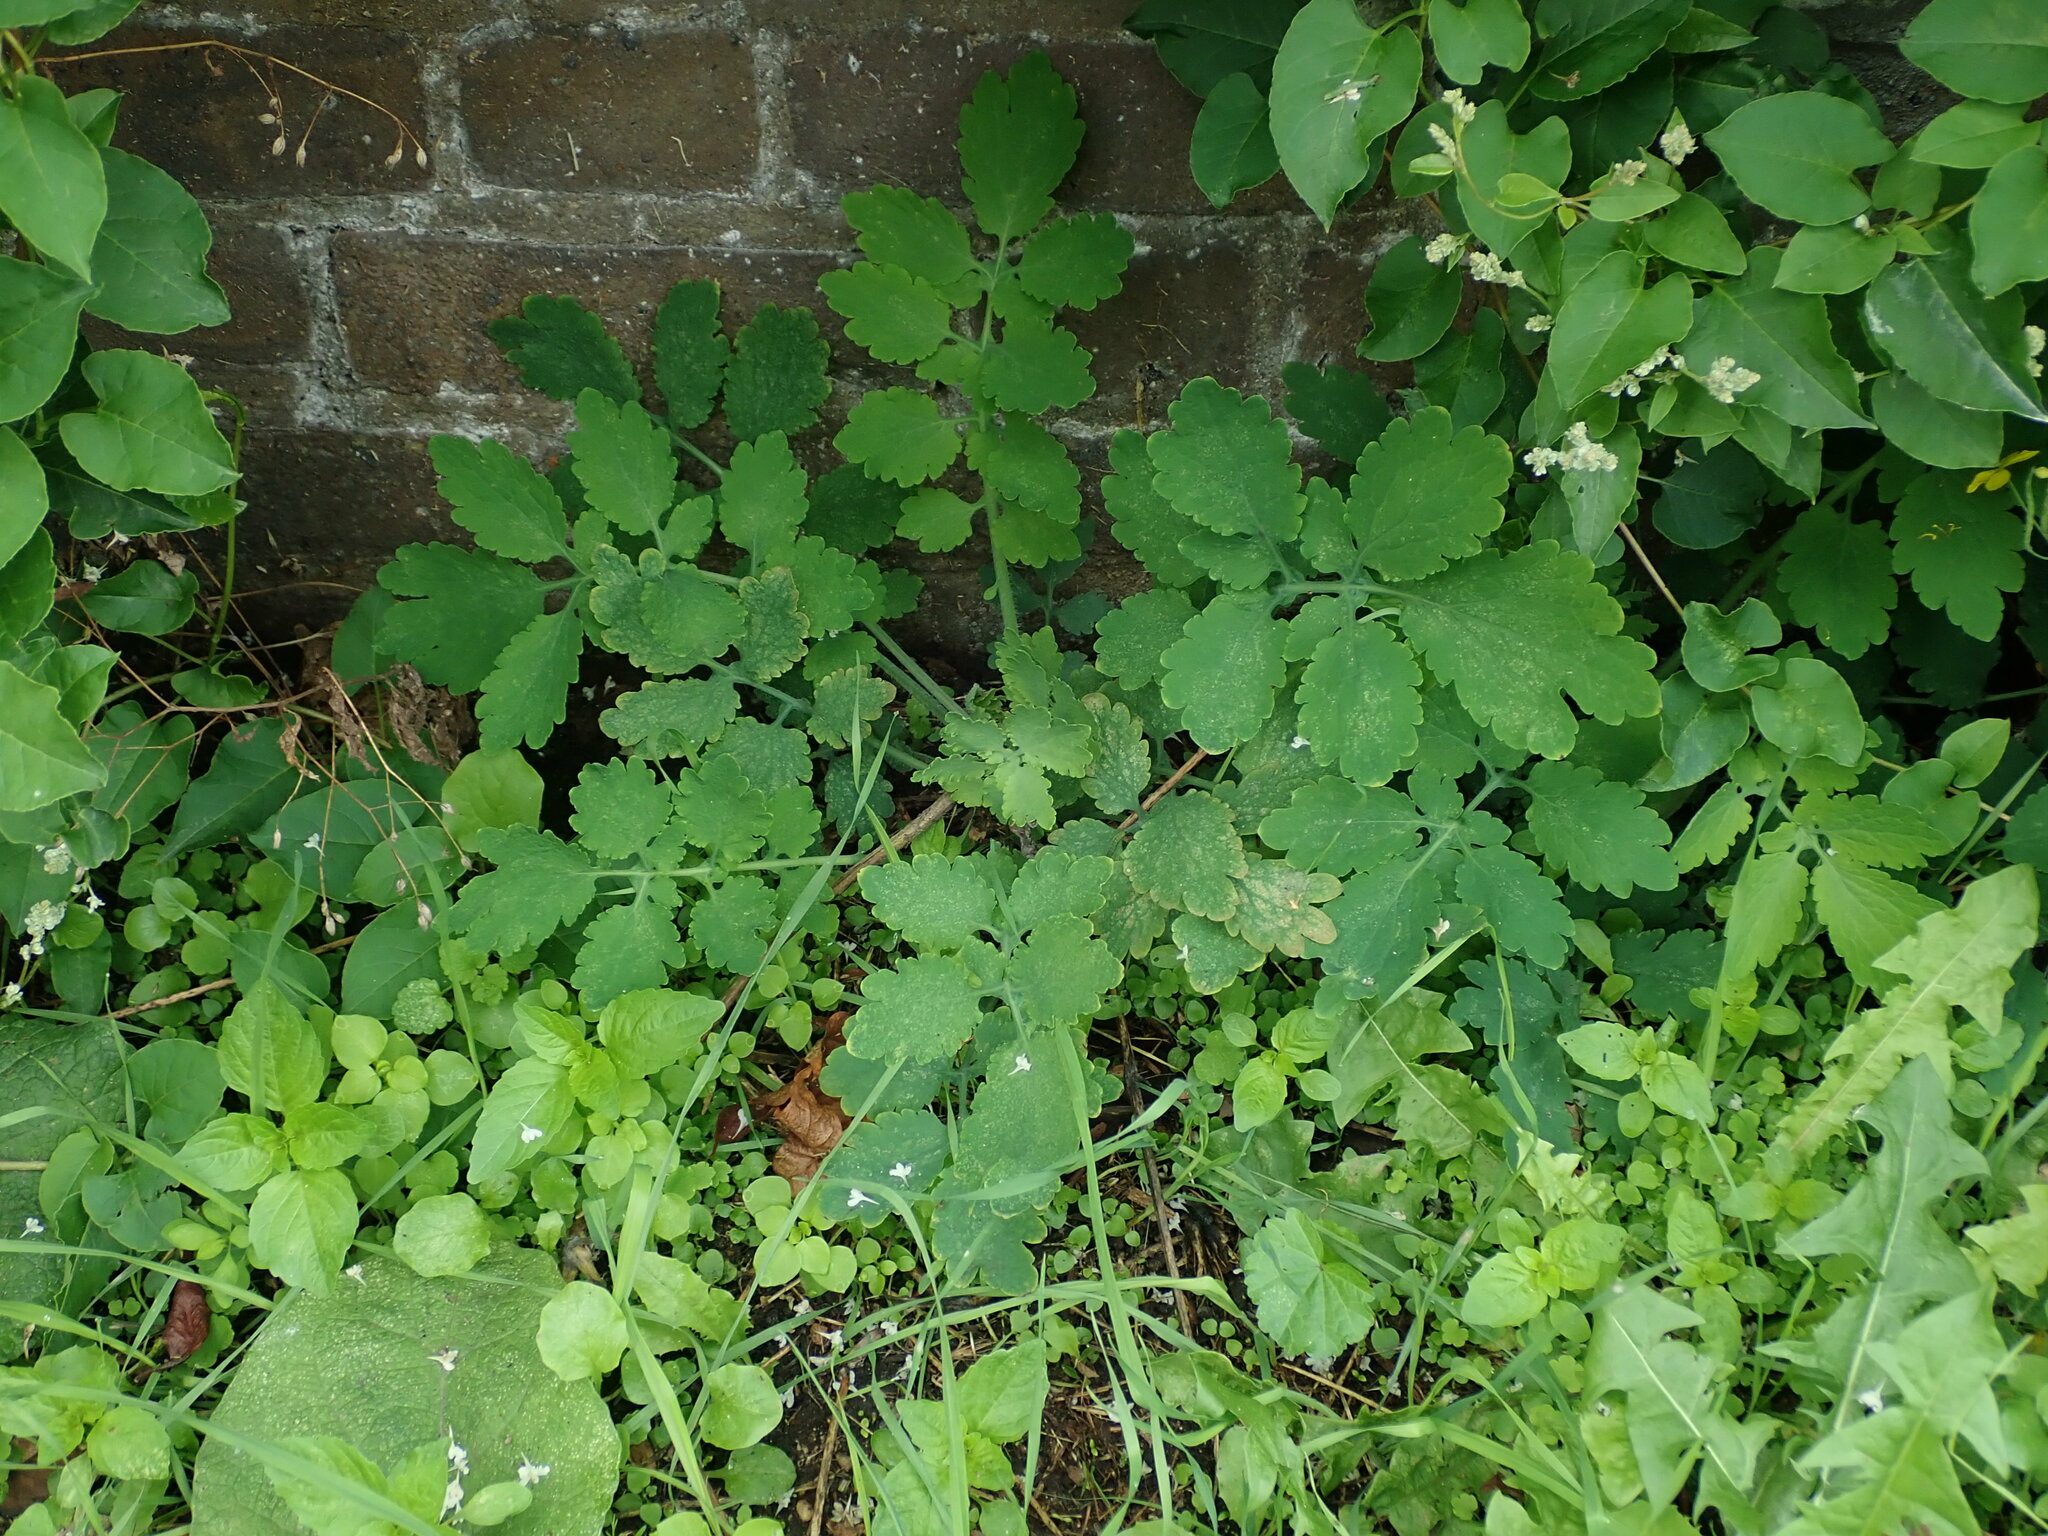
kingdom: Plantae
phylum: Tracheophyta
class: Magnoliopsida
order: Ranunculales
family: Papaveraceae
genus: Chelidonium
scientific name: Chelidonium majus
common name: Greater celandine
